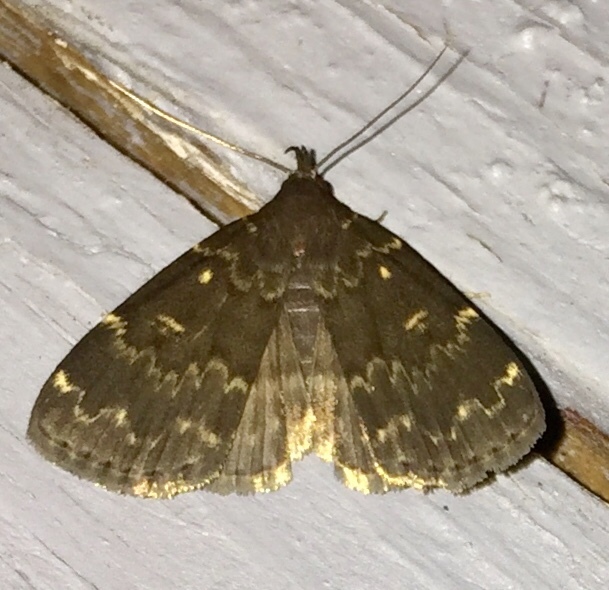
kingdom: Animalia
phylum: Arthropoda
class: Insecta
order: Lepidoptera
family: Erebidae
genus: Idia
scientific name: Idia lubricalis
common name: Twin-striped tabby
